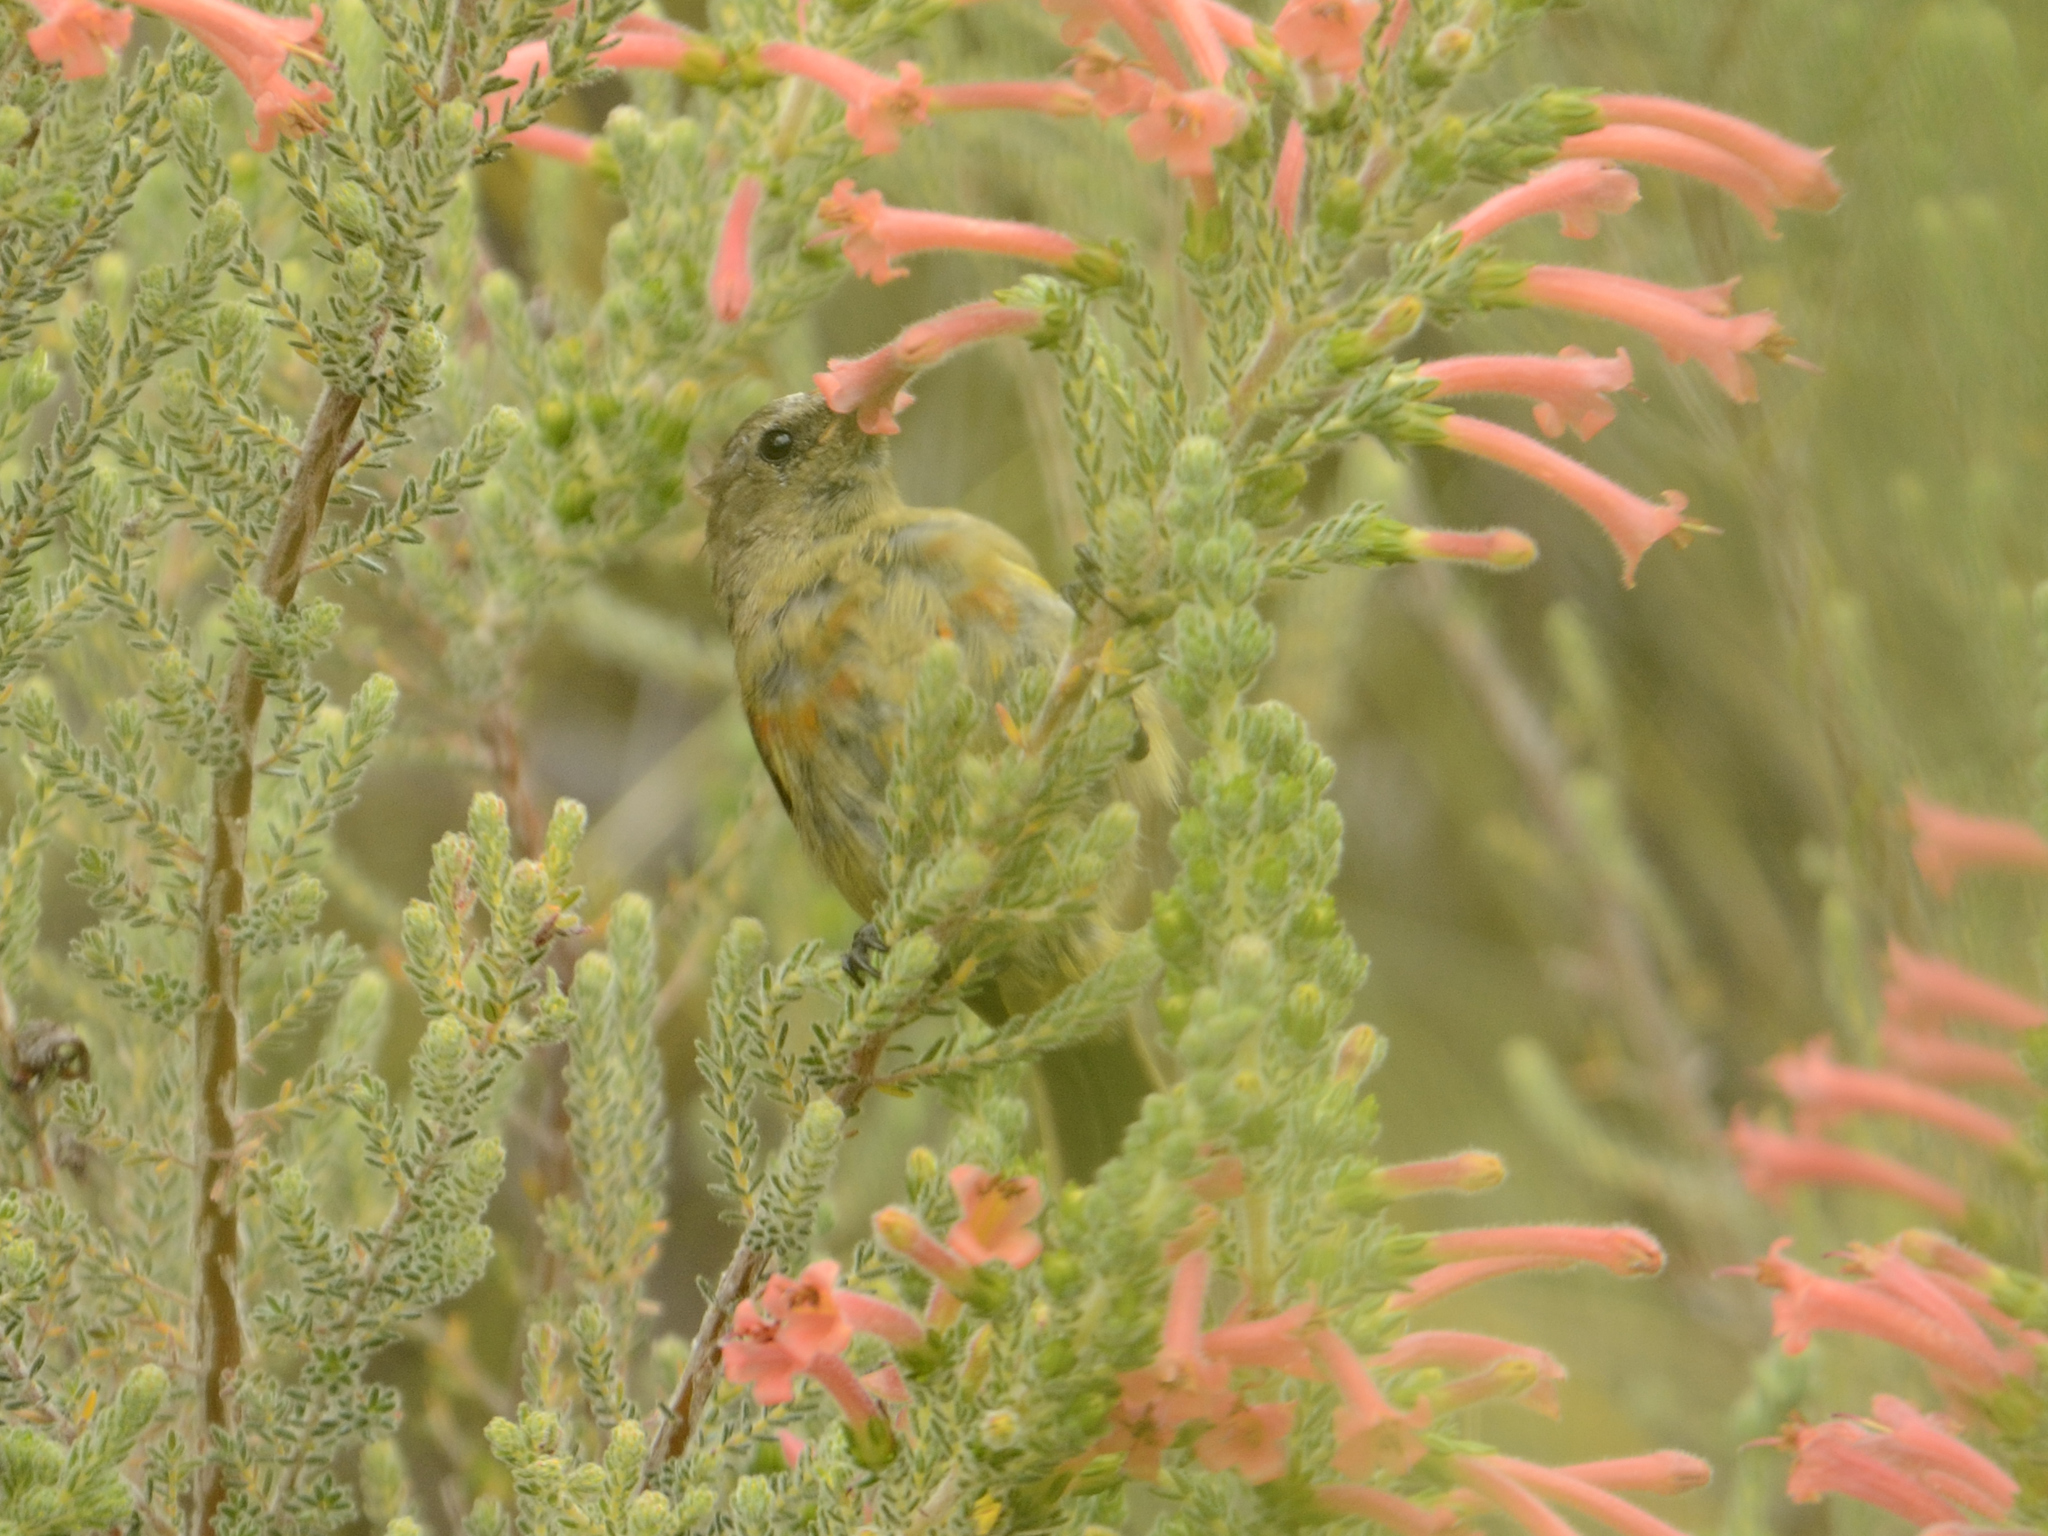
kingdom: Animalia
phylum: Chordata
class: Aves
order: Passeriformes
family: Nectariniidae
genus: Anthobaphes
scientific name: Anthobaphes violacea
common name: Orange-breasted sunbird
